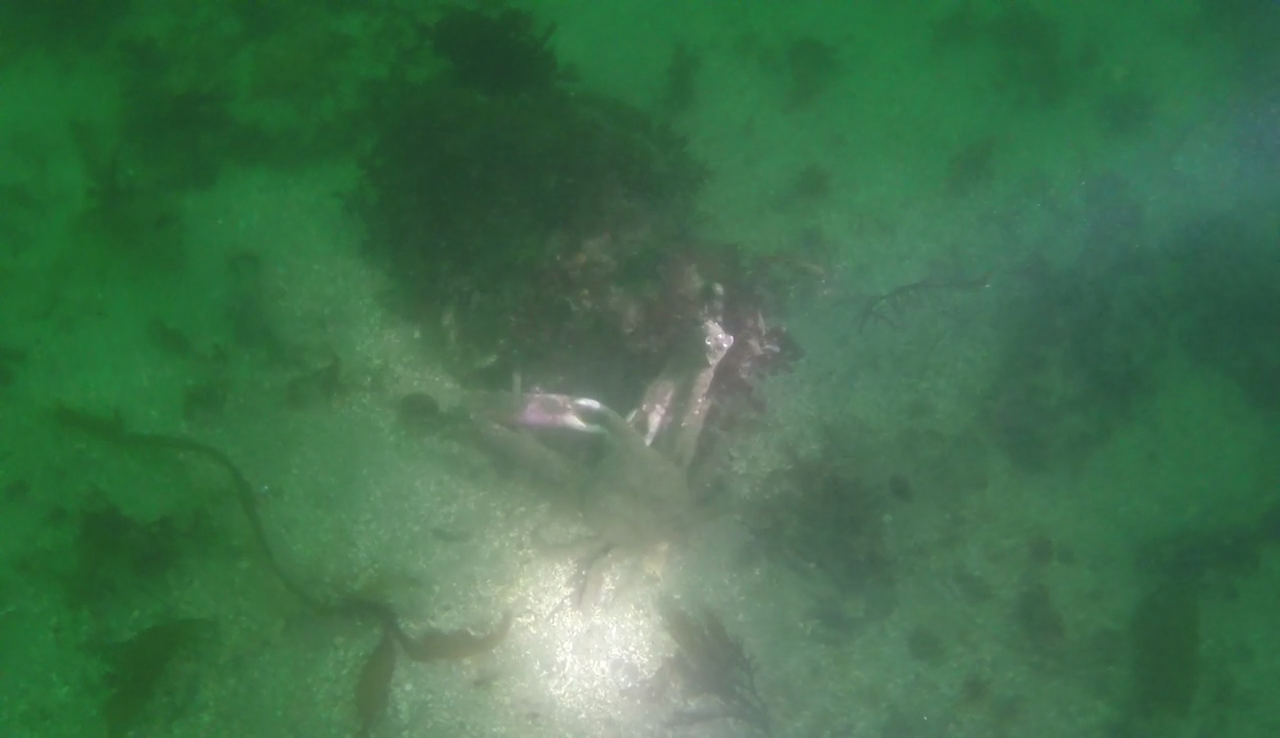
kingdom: Animalia
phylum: Arthropoda
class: Malacostraca
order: Decapoda
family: Epialtidae
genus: Loxorhynchus
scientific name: Loxorhynchus grandis
